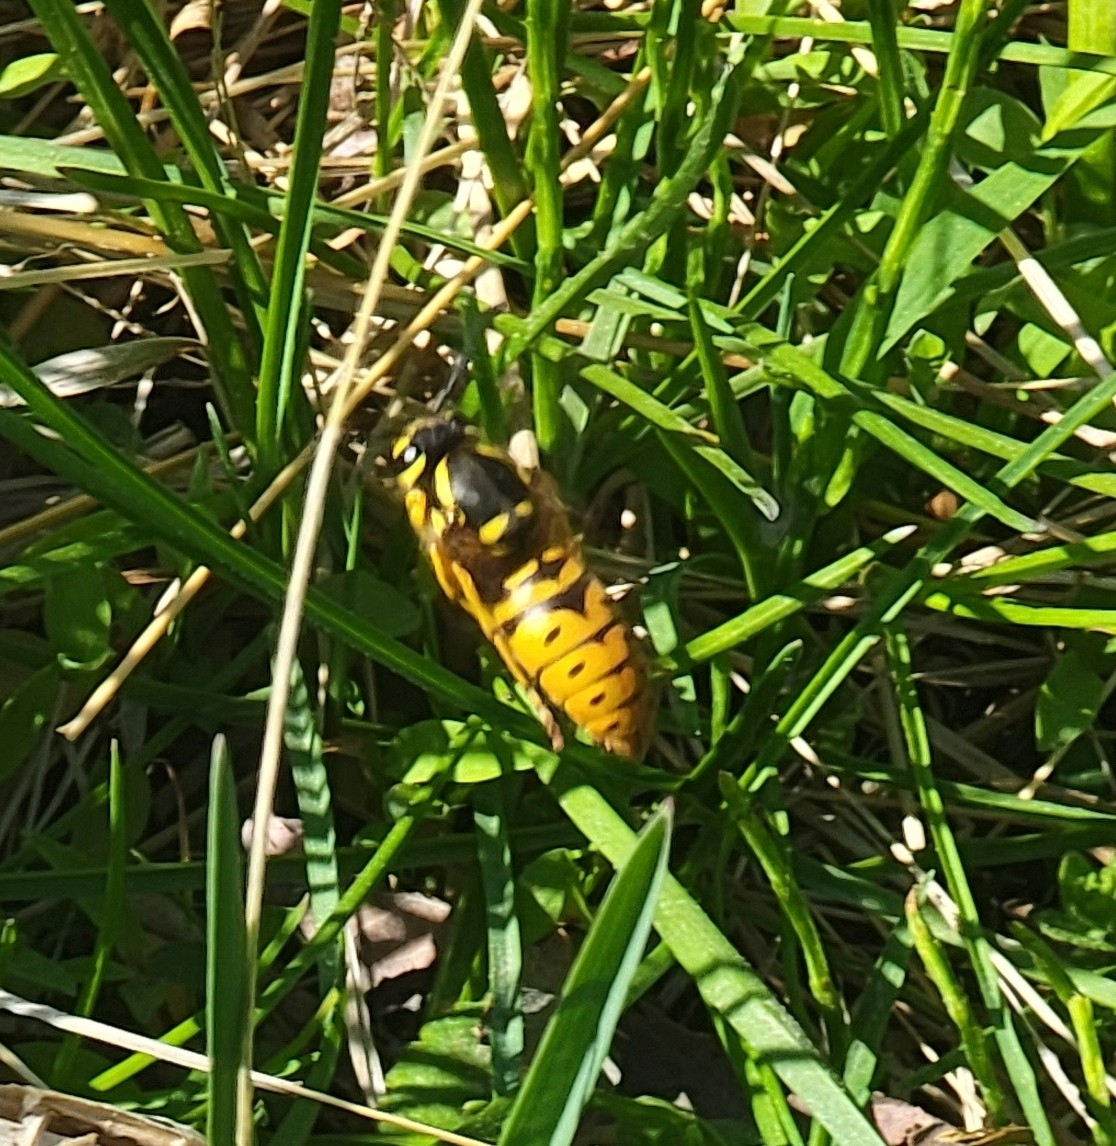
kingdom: Animalia
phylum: Arthropoda
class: Insecta
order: Hymenoptera
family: Vespidae
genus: Vespula
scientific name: Vespula maculifrons
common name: Eastern yellowjacket
